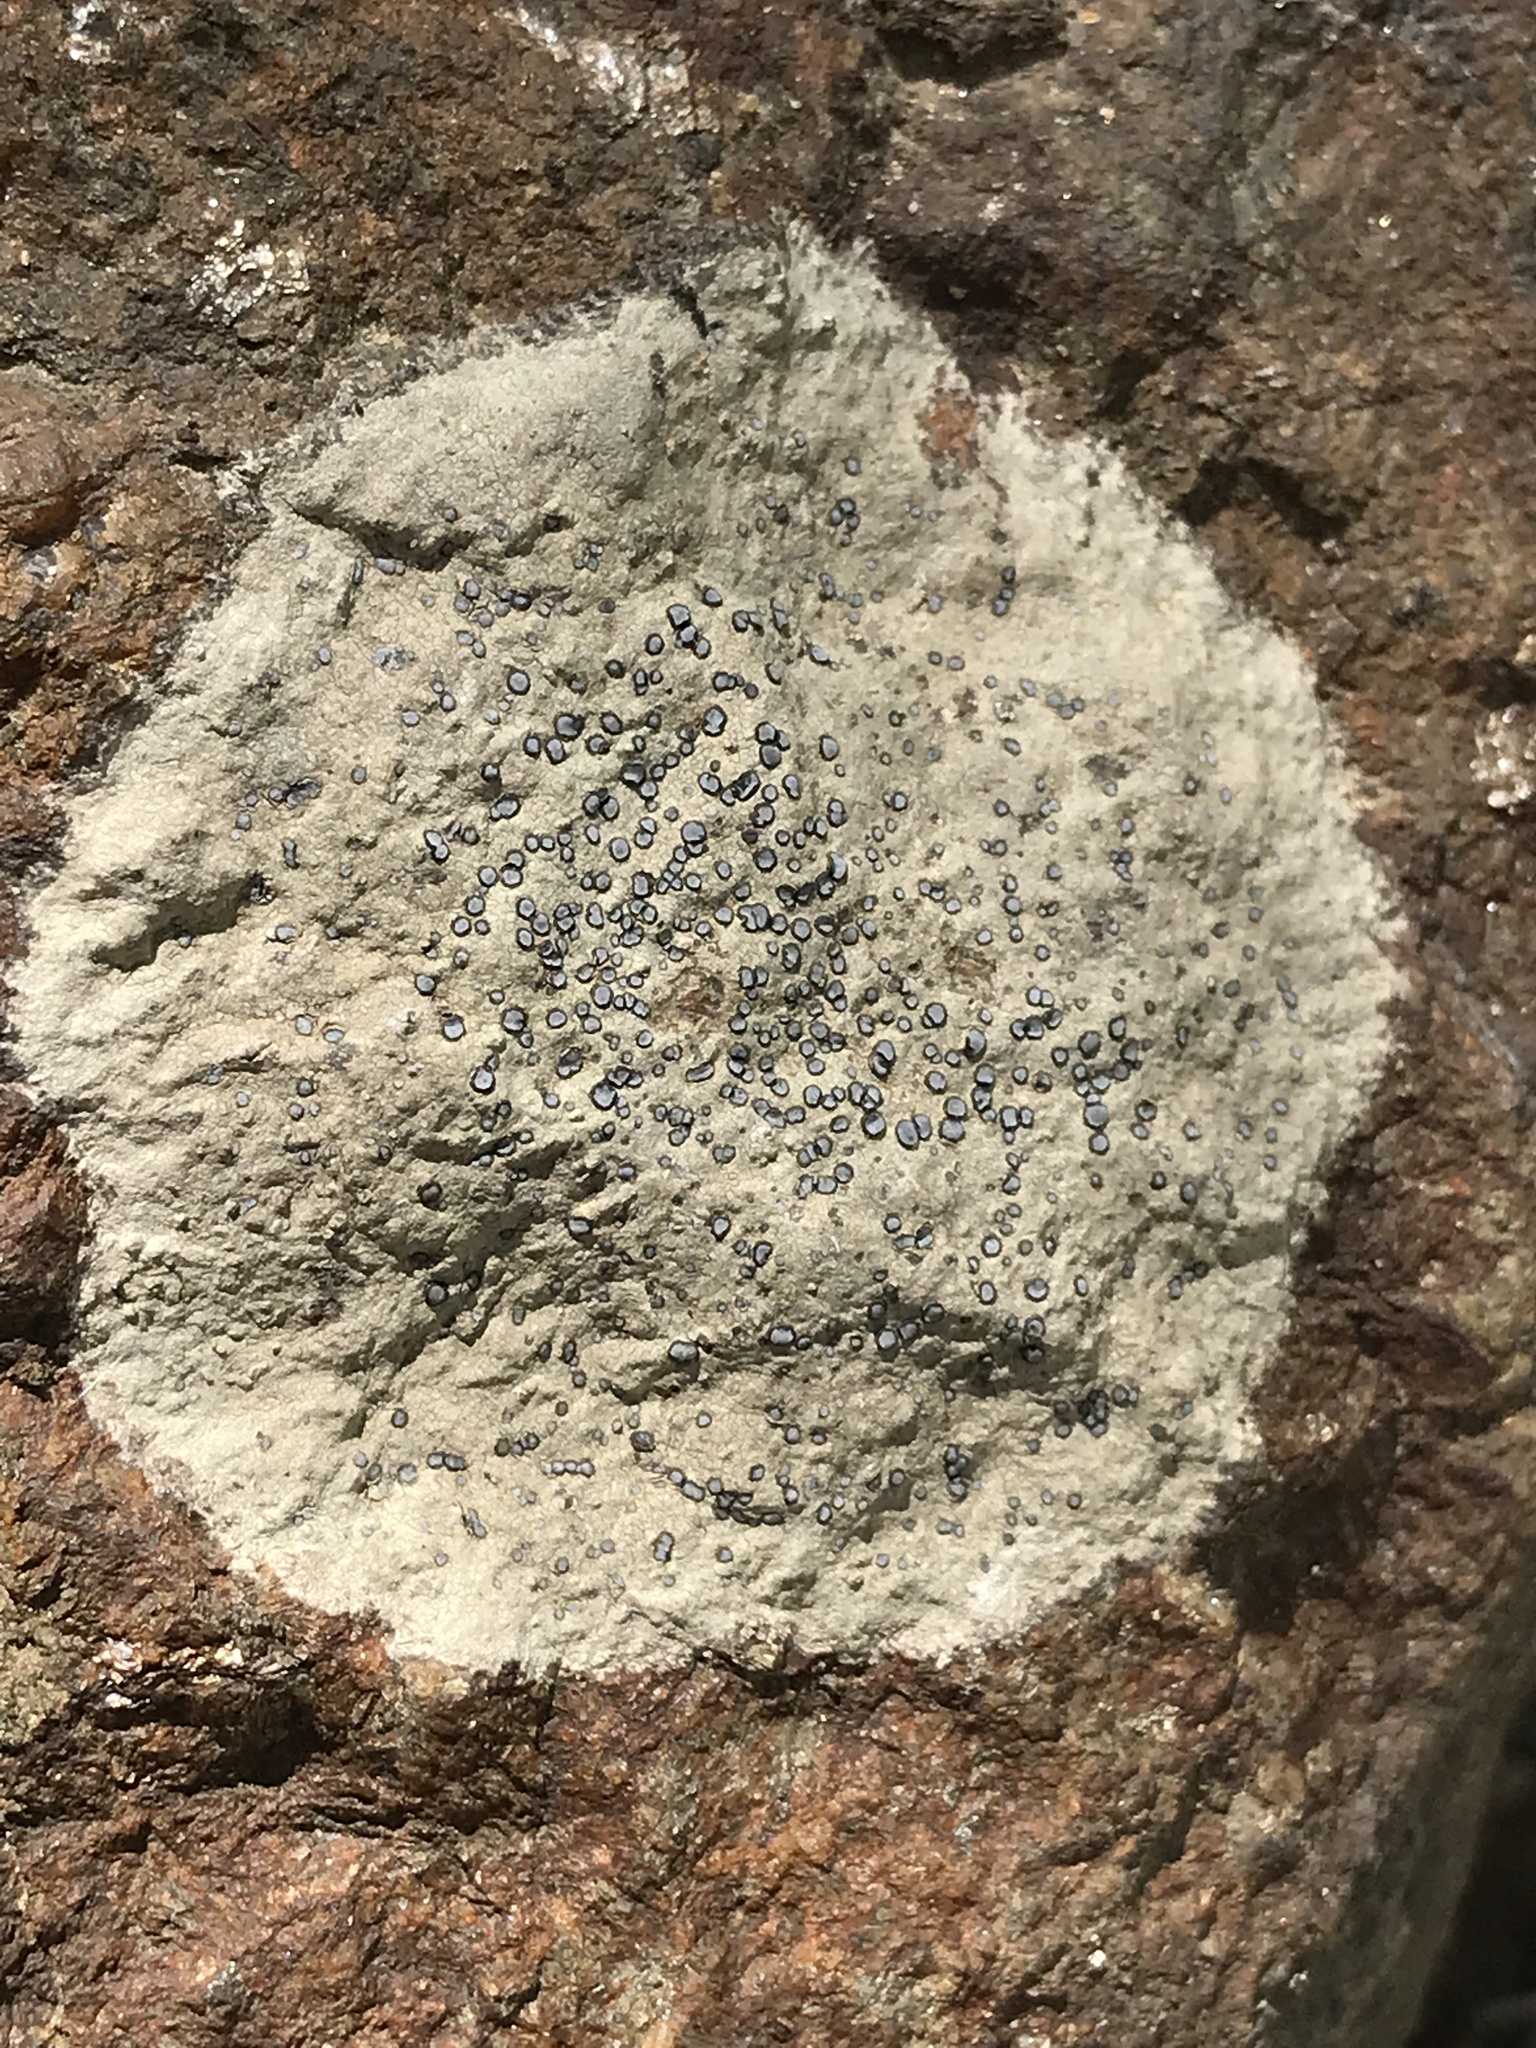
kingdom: Fungi
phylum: Ascomycota
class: Lecanoromycetes
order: Lecideales
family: Lecideaceae
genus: Porpidia
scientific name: Porpidia albocaerulescens
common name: Smokey-eyed boulder lichen
